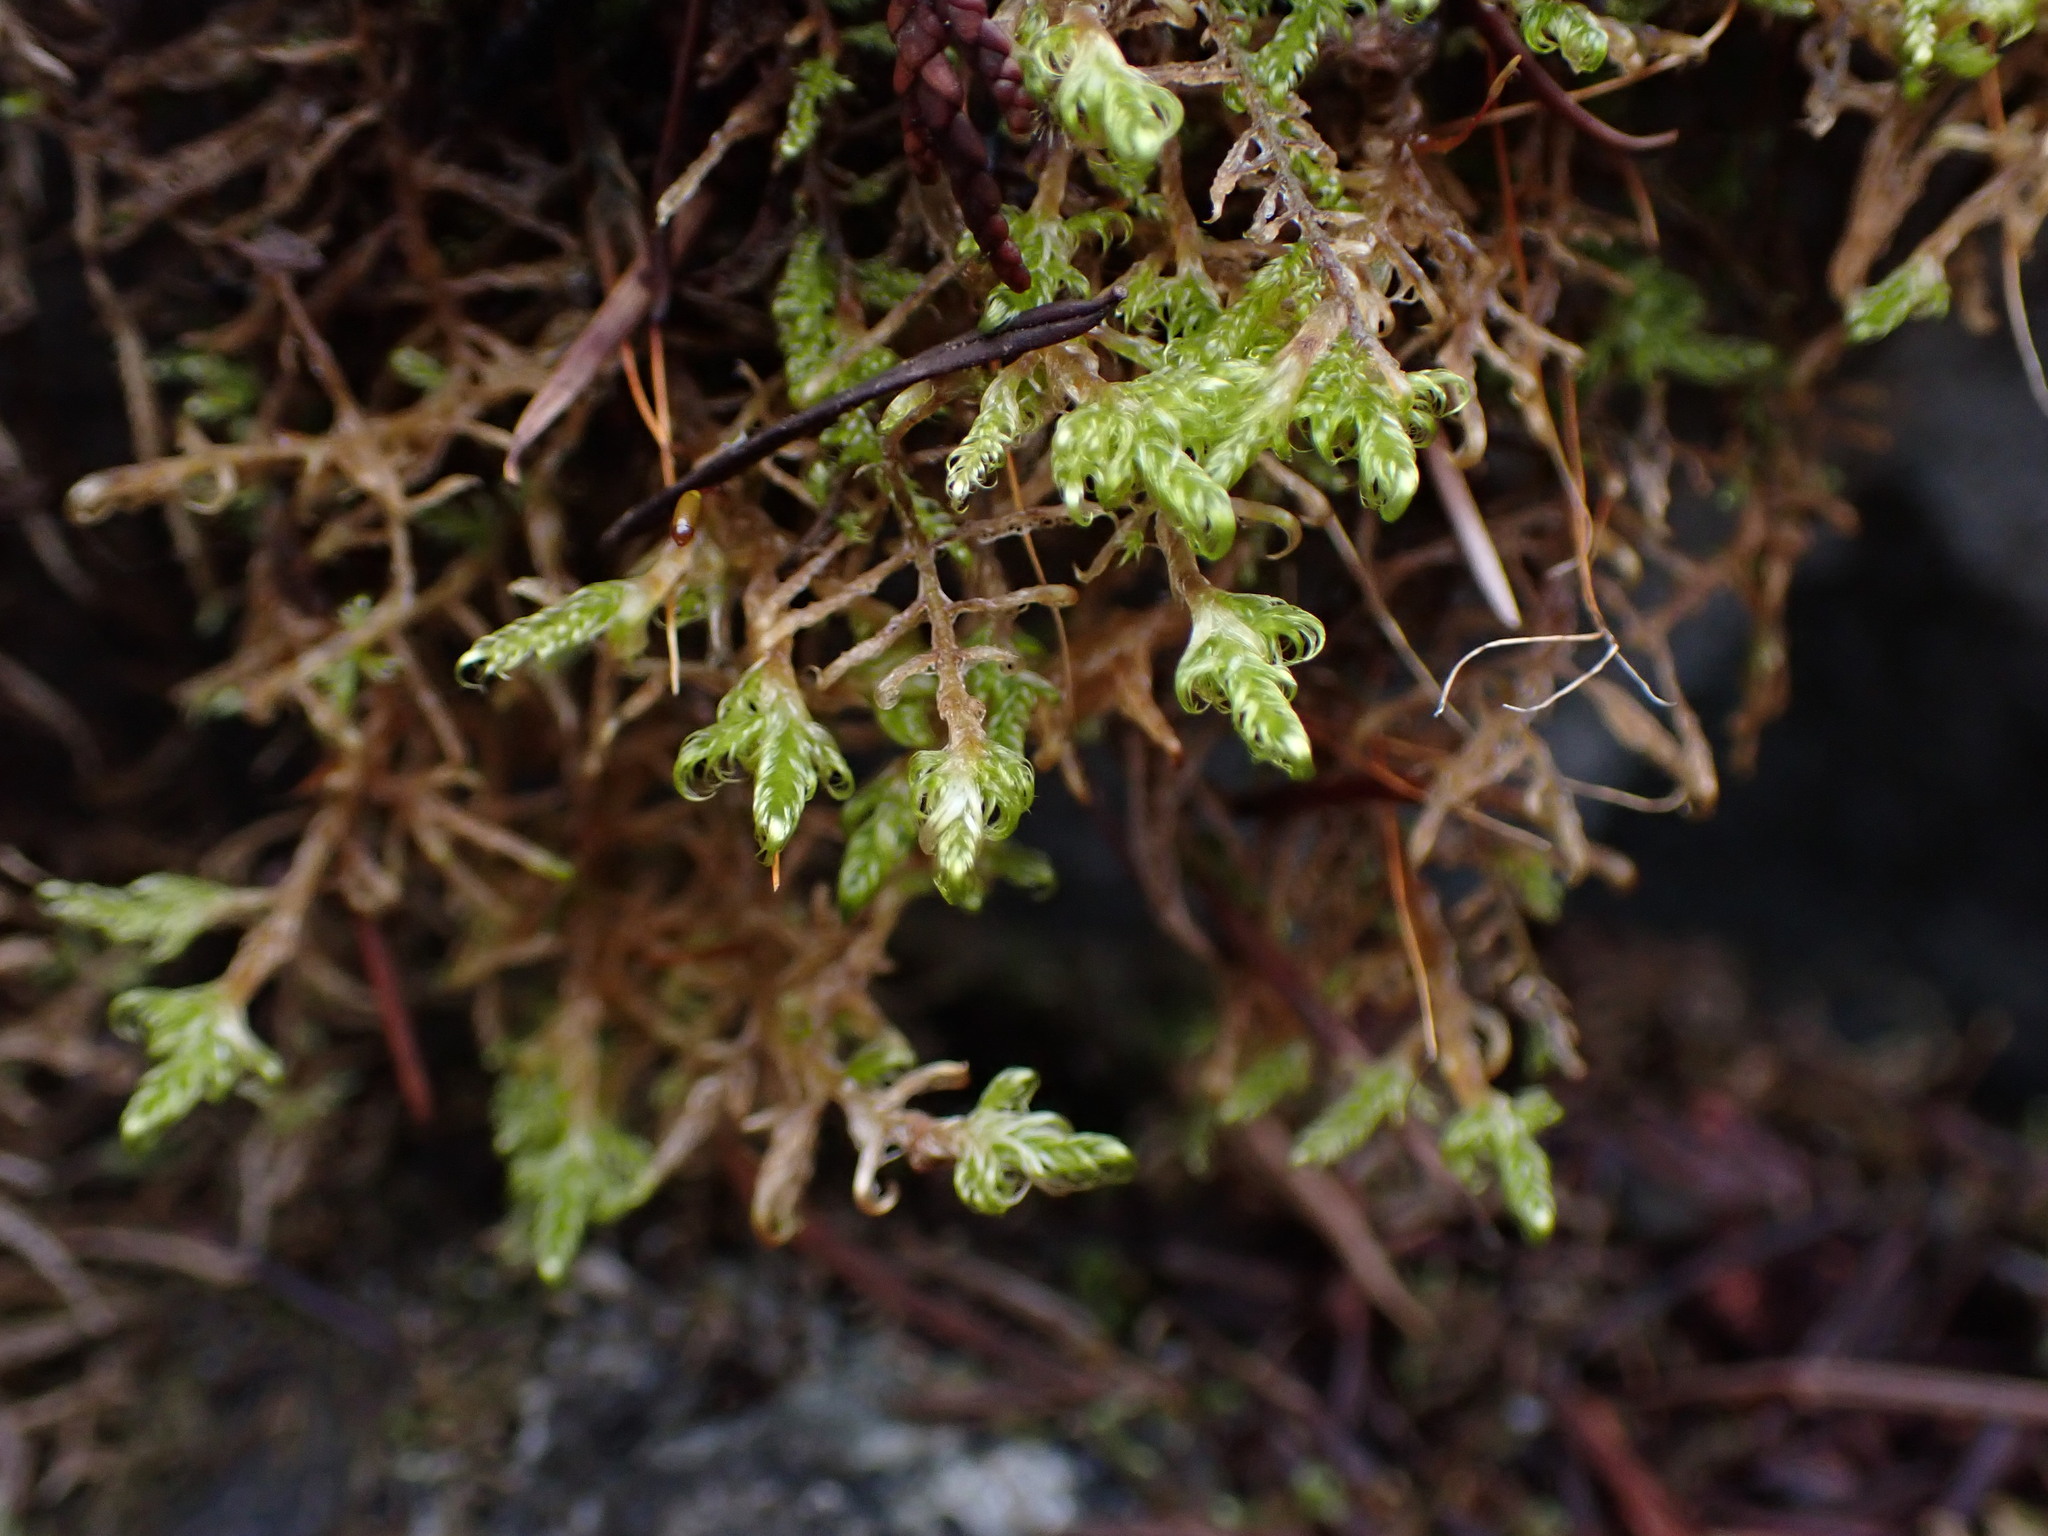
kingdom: Plantae
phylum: Bryophyta
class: Bryopsida
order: Hypnales
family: Scorpidiaceae
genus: Sanionia
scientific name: Sanionia uncinata
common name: Sickle moss
